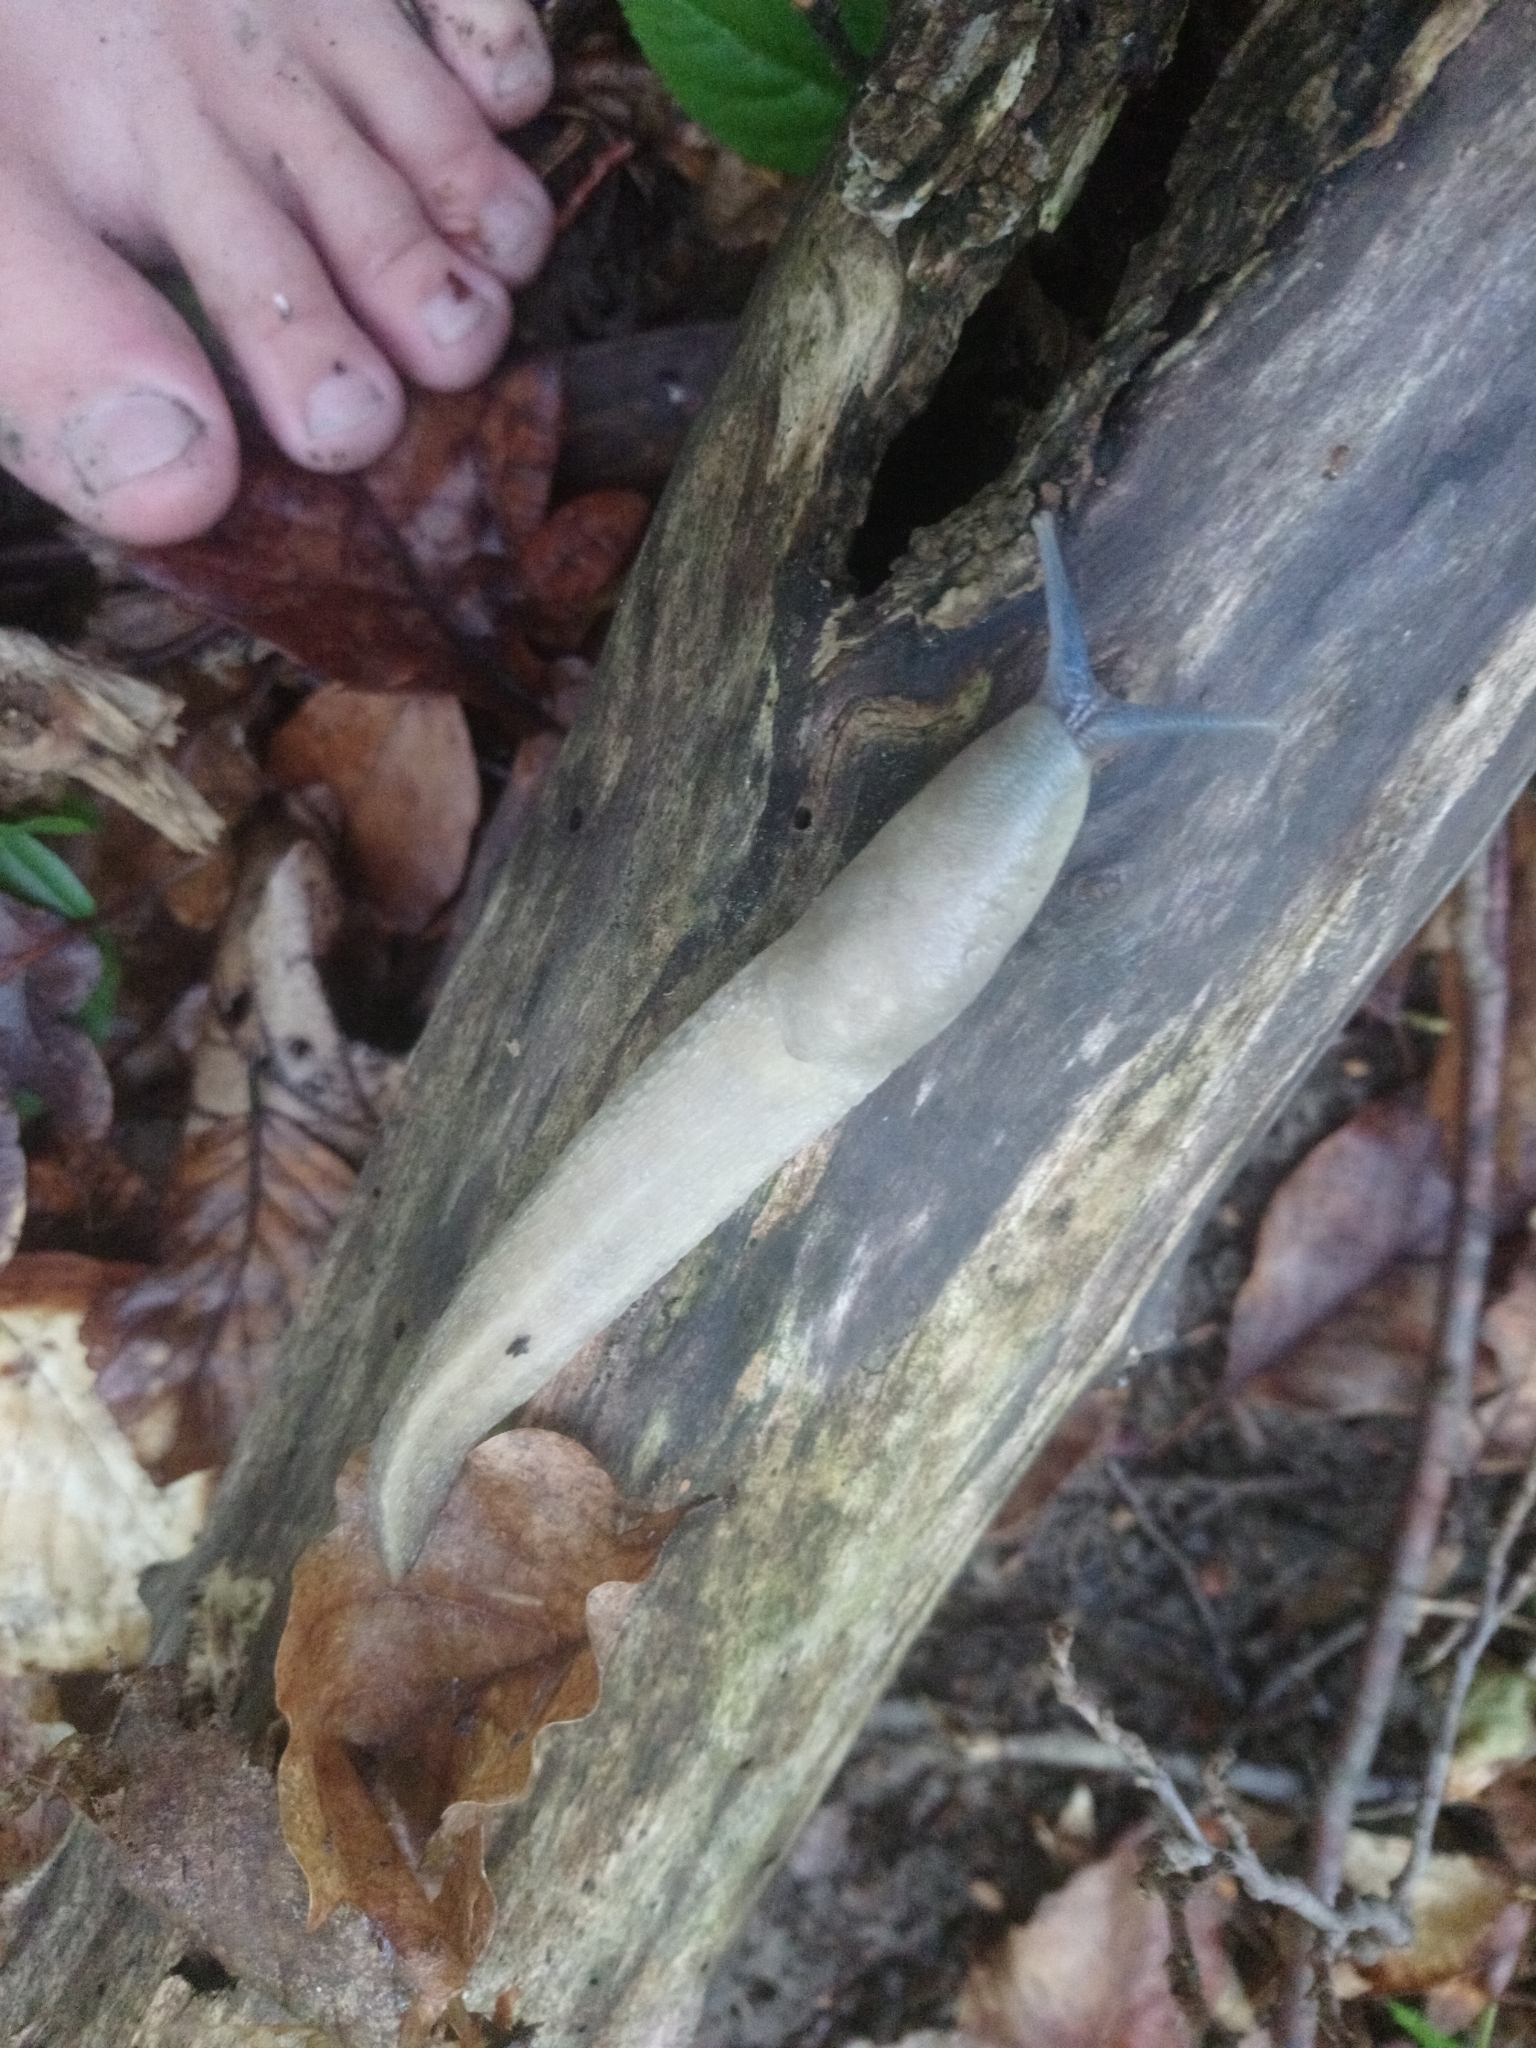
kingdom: Animalia
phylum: Mollusca
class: Gastropoda
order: Stylommatophora
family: Limacidae
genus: Limax
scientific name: Limax cinereoniger
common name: Ash-black slug
